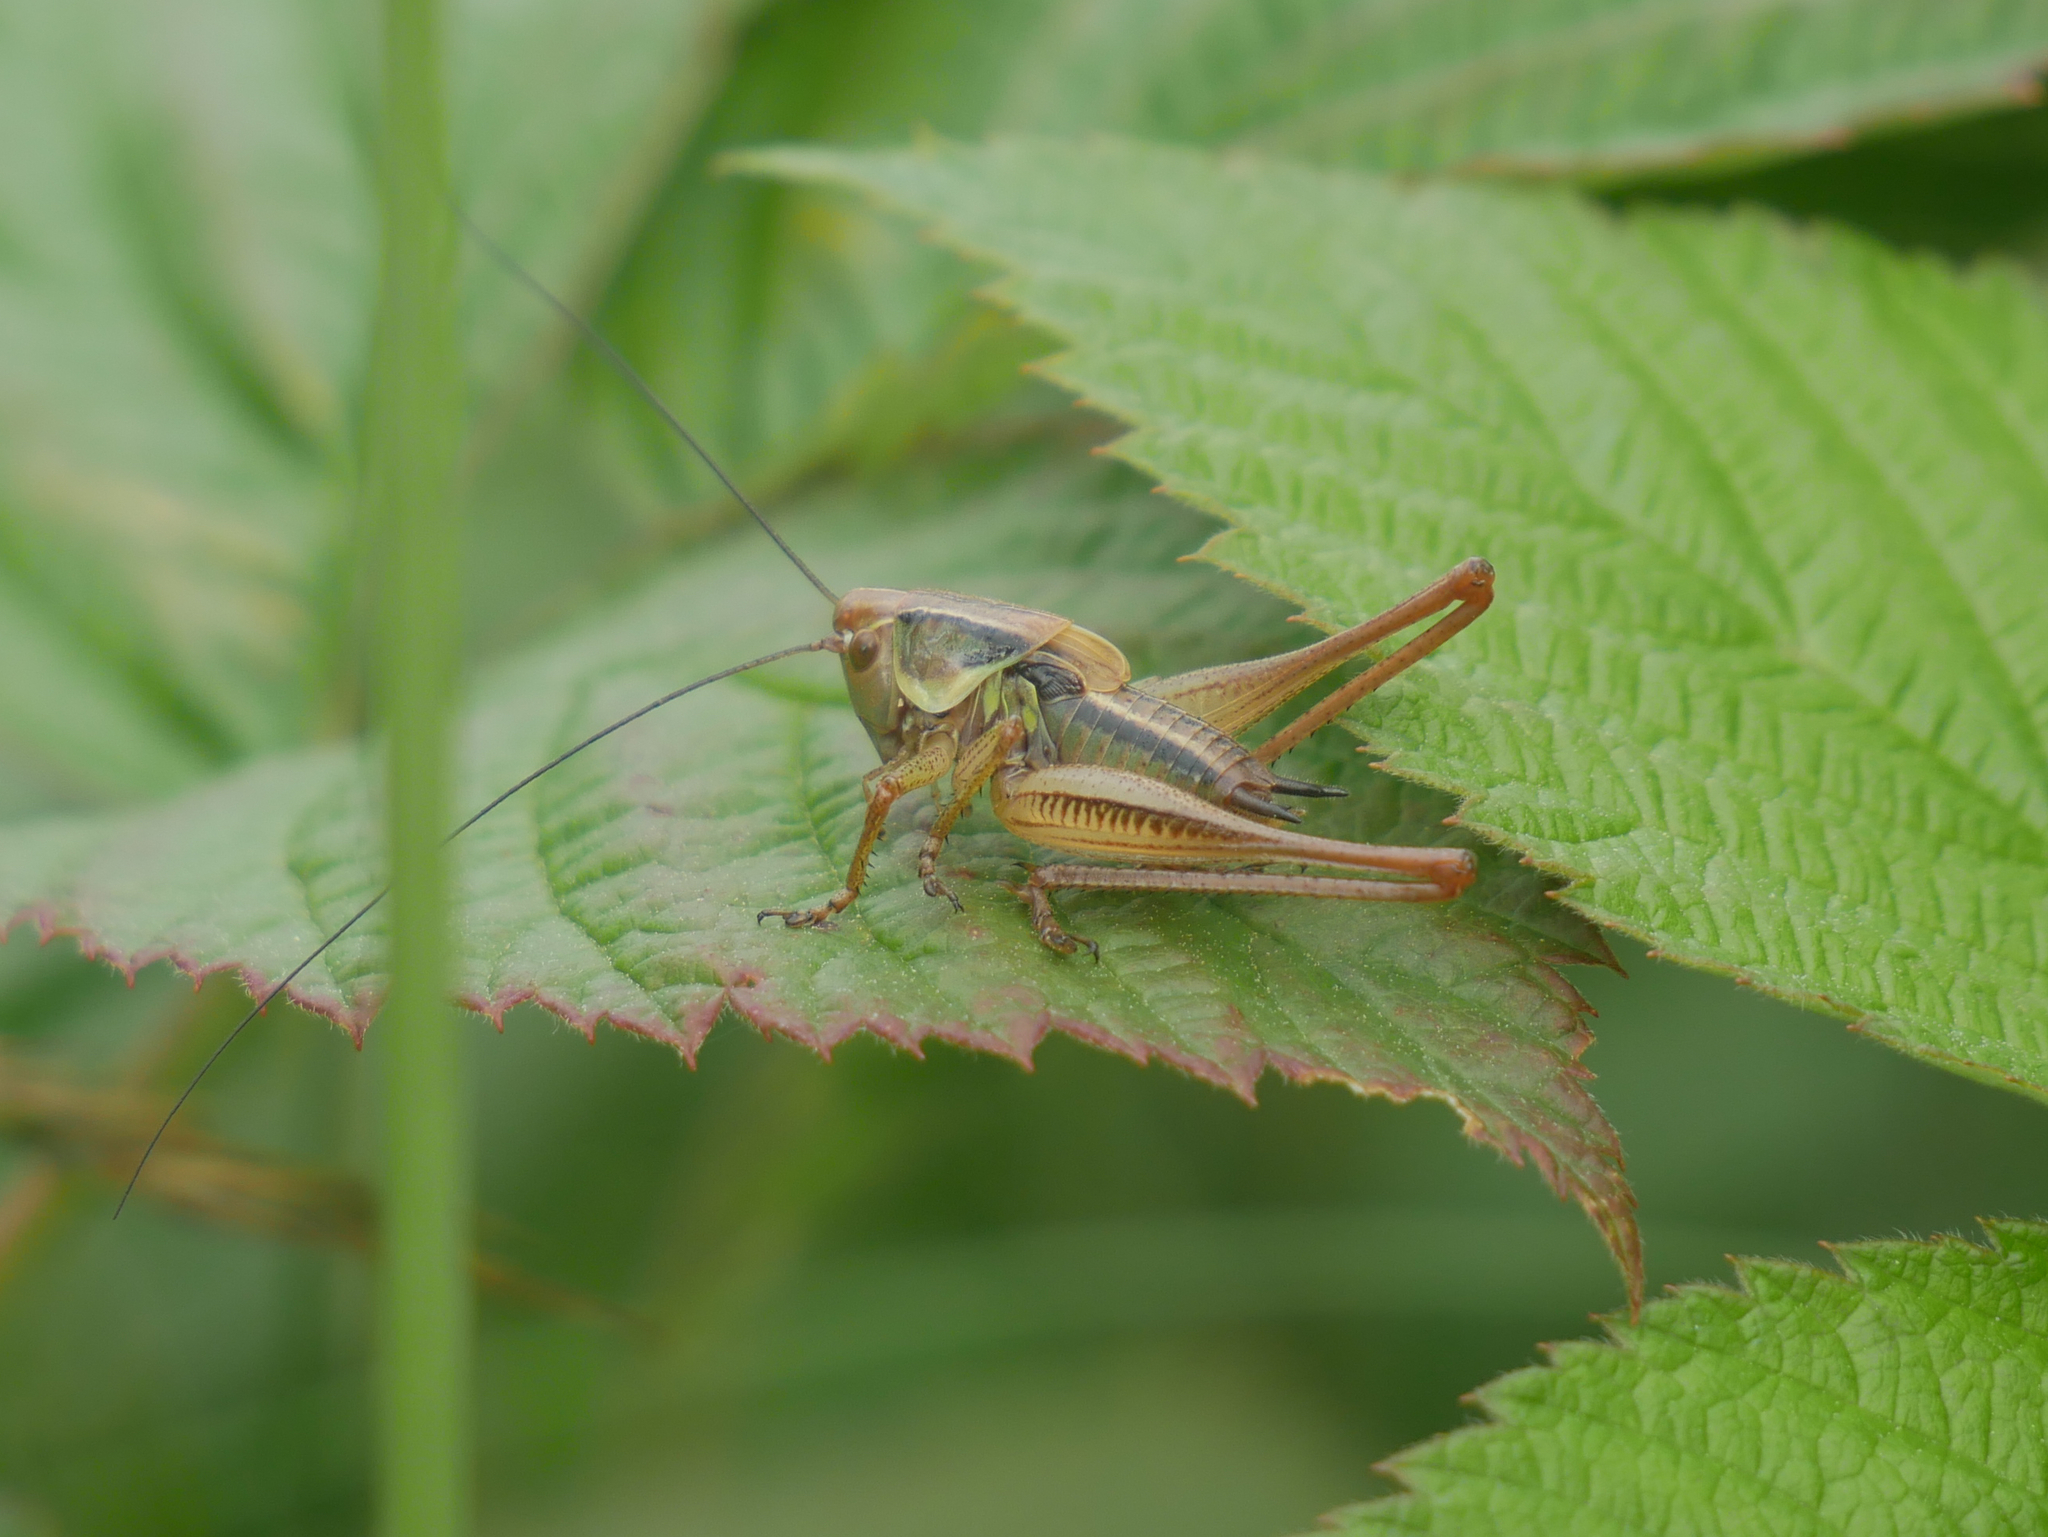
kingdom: Animalia
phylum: Arthropoda
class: Insecta
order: Orthoptera
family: Tettigoniidae
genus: Roeseliana
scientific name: Roeseliana roeselii
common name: Roesel's bush cricket
